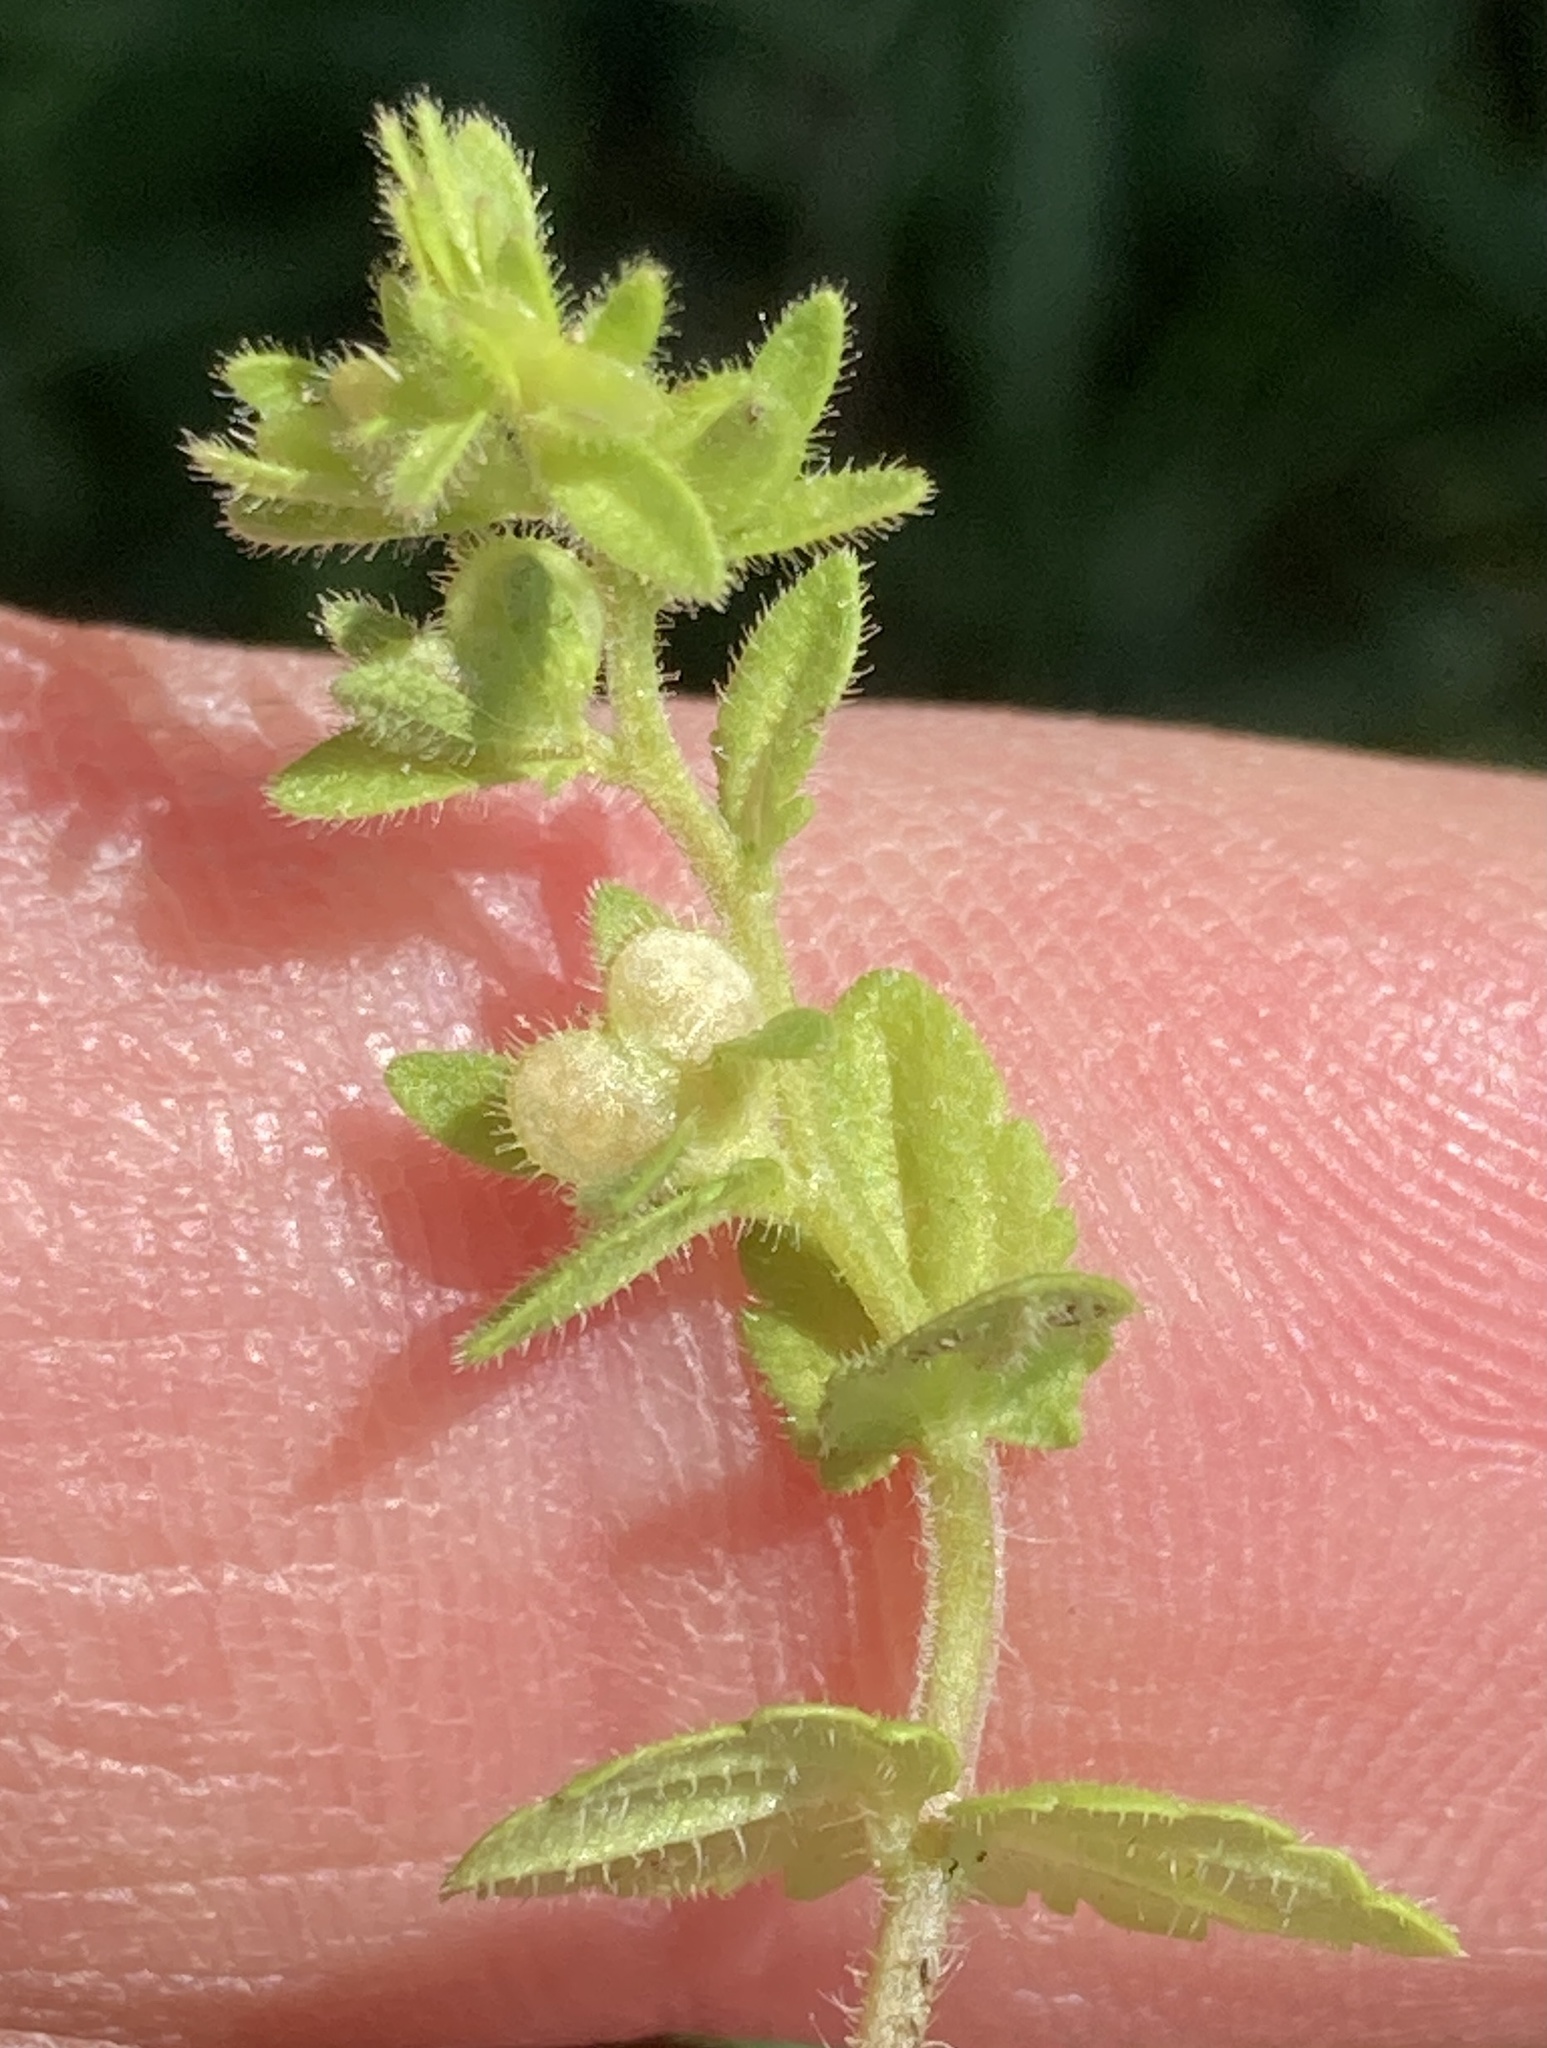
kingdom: Plantae
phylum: Tracheophyta
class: Magnoliopsida
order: Lamiales
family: Plantaginaceae
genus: Veronica
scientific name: Veronica arvensis
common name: Corn speedwell
